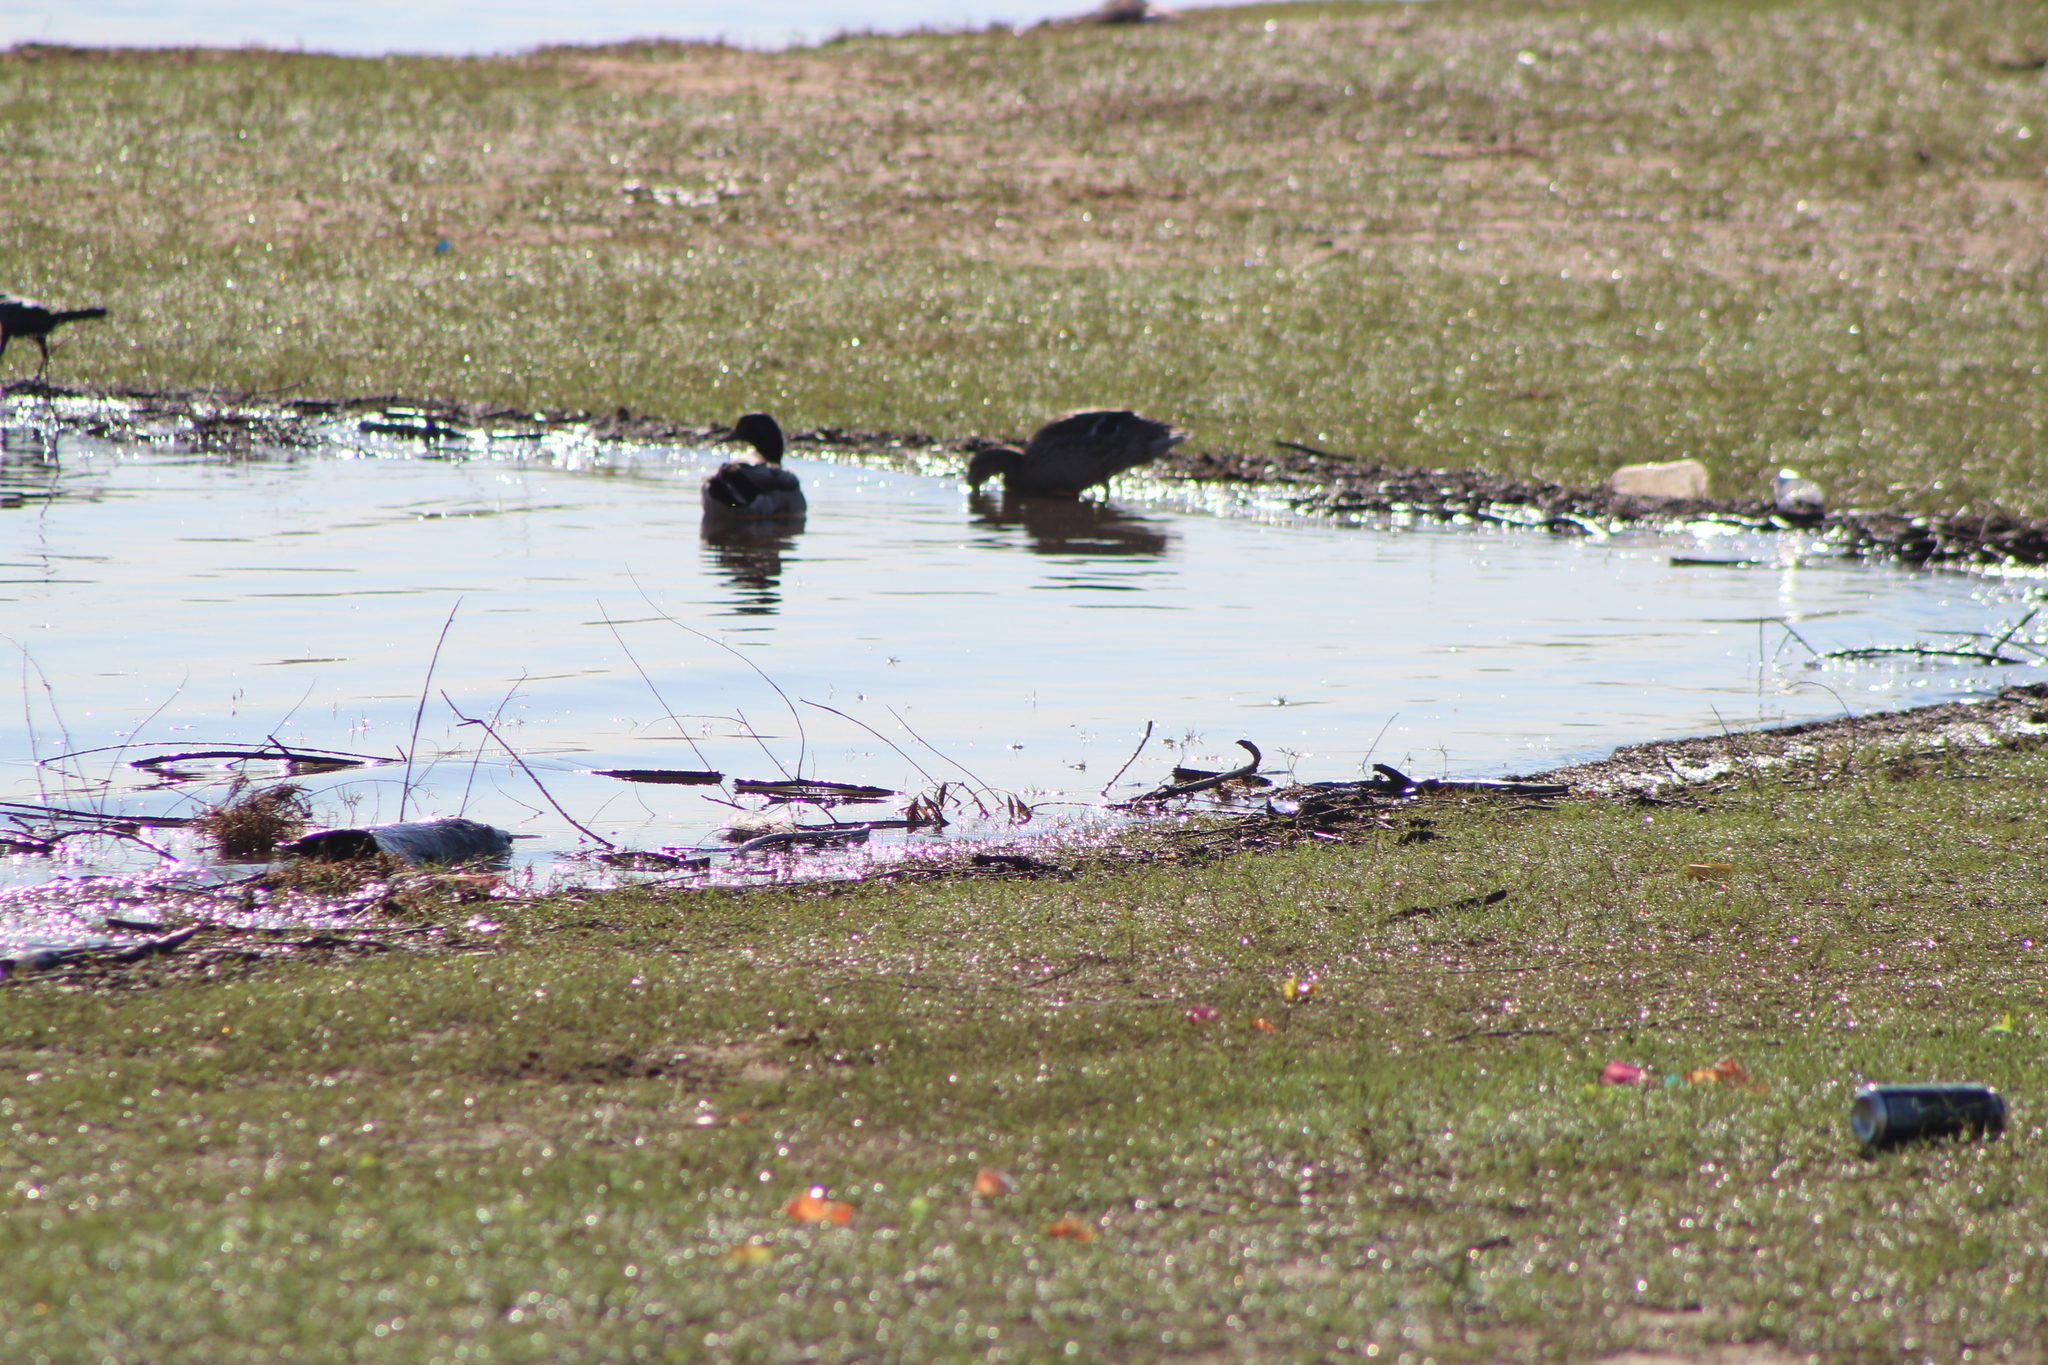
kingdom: Animalia
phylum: Chordata
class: Aves
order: Anseriformes
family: Anatidae
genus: Anas
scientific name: Anas platyrhynchos
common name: Mallard
